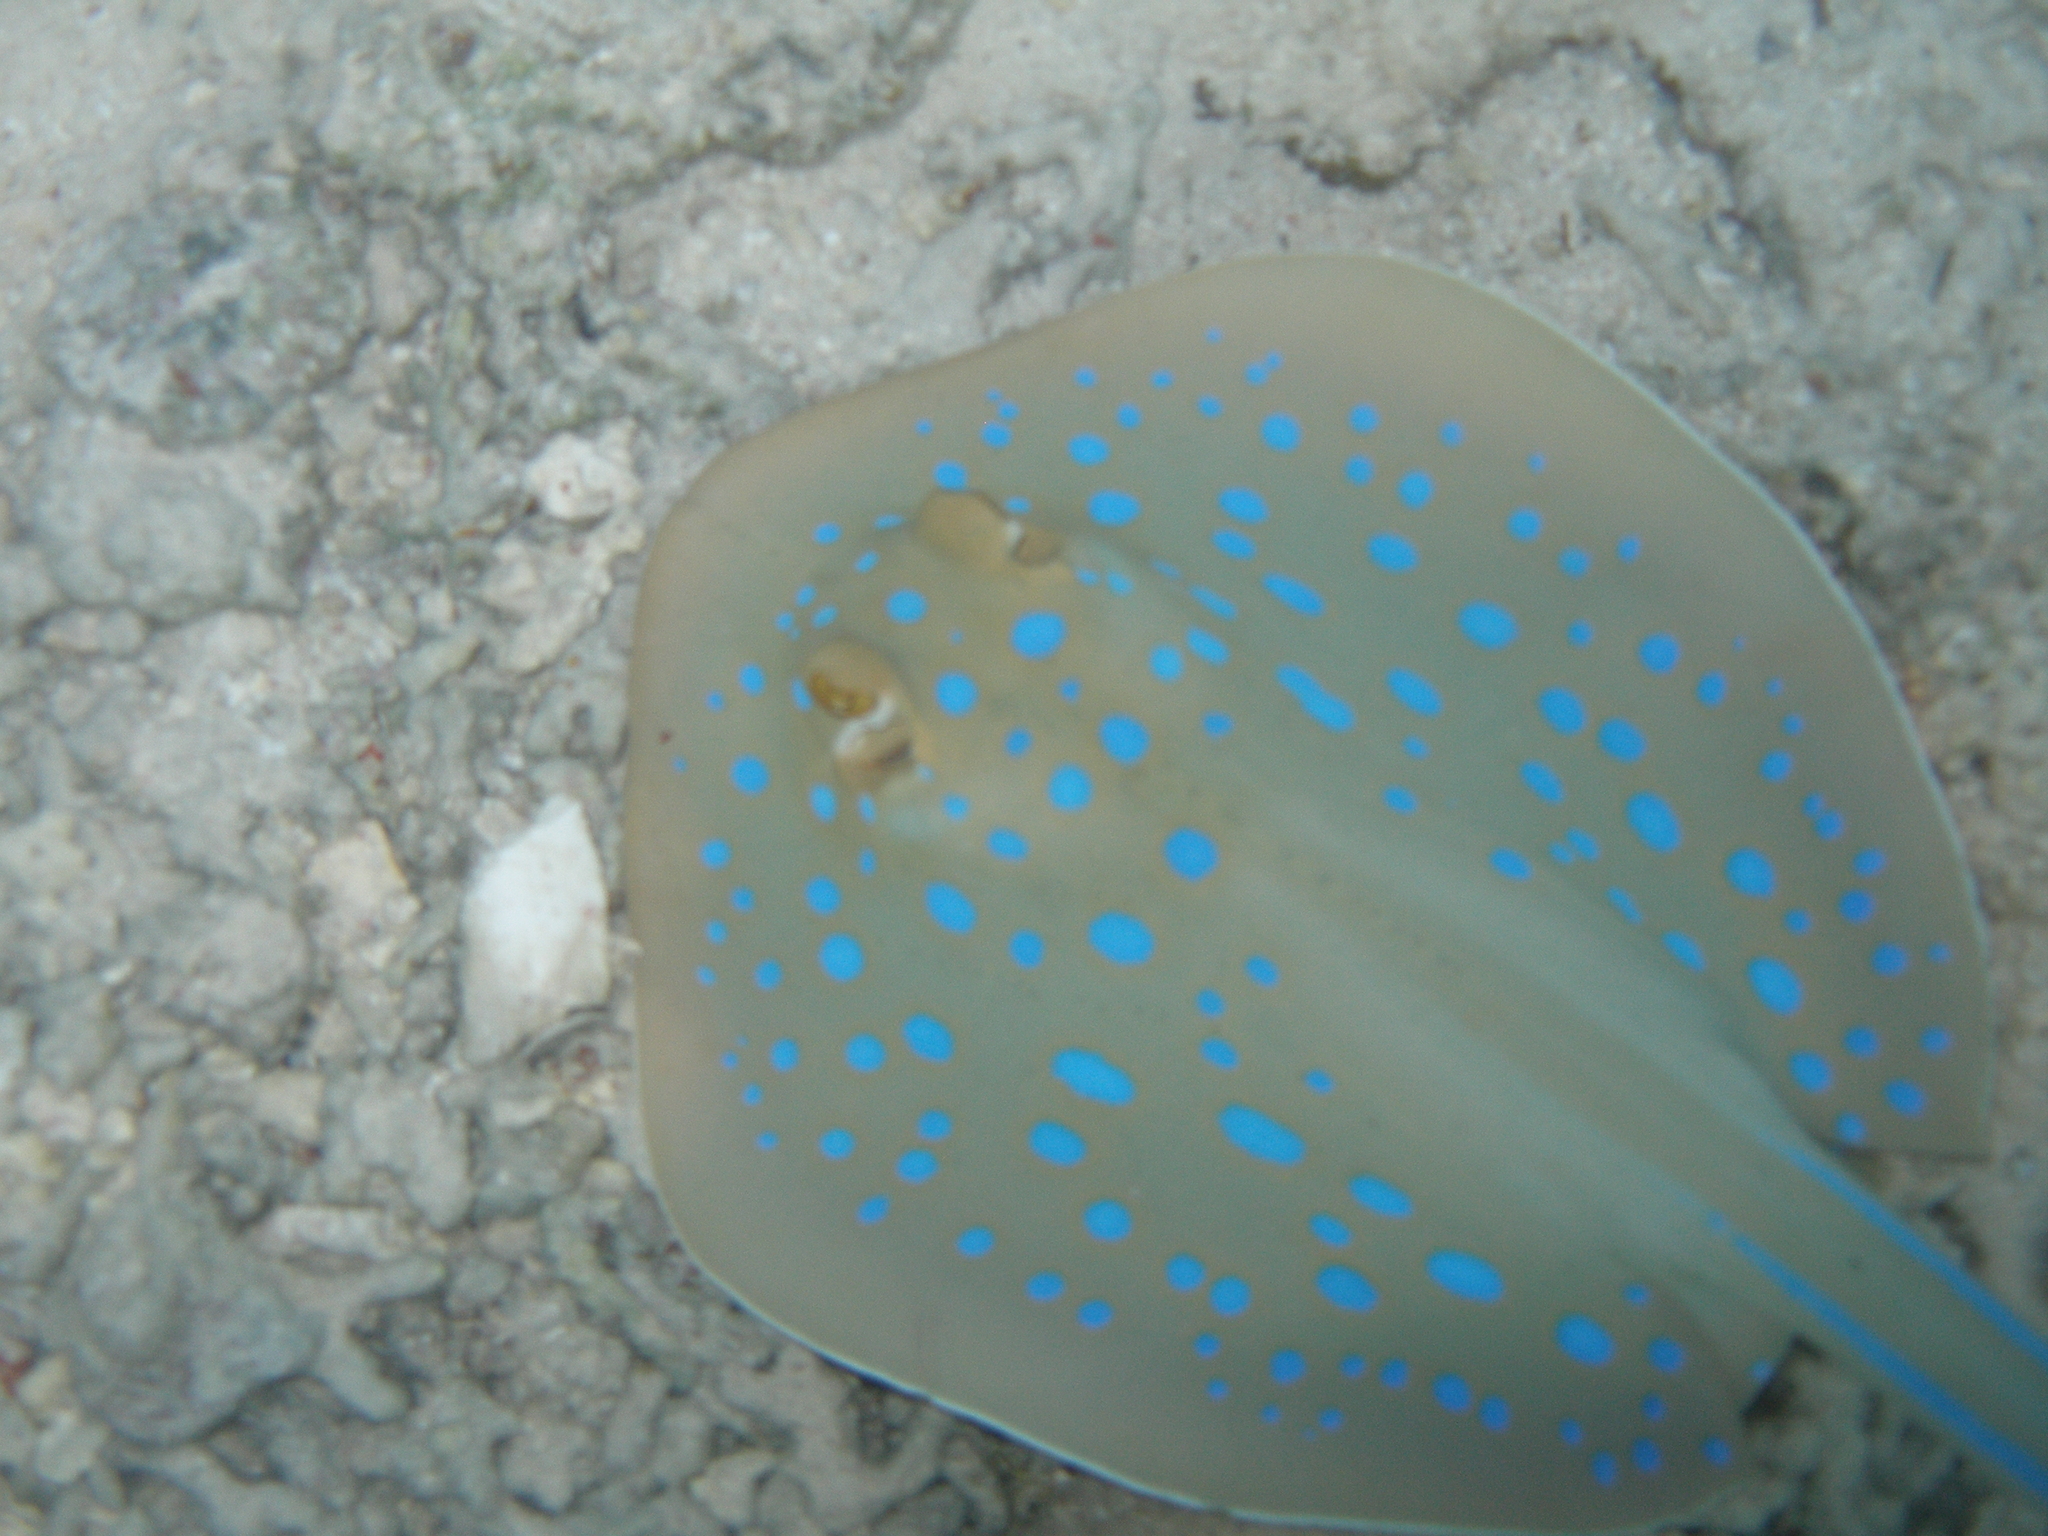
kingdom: Animalia
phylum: Chordata
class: Elasmobranchii
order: Myliobatiformes
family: Dasyatidae
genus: Taeniura
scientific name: Taeniura lymma
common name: Bluespotted ribbontail ray
